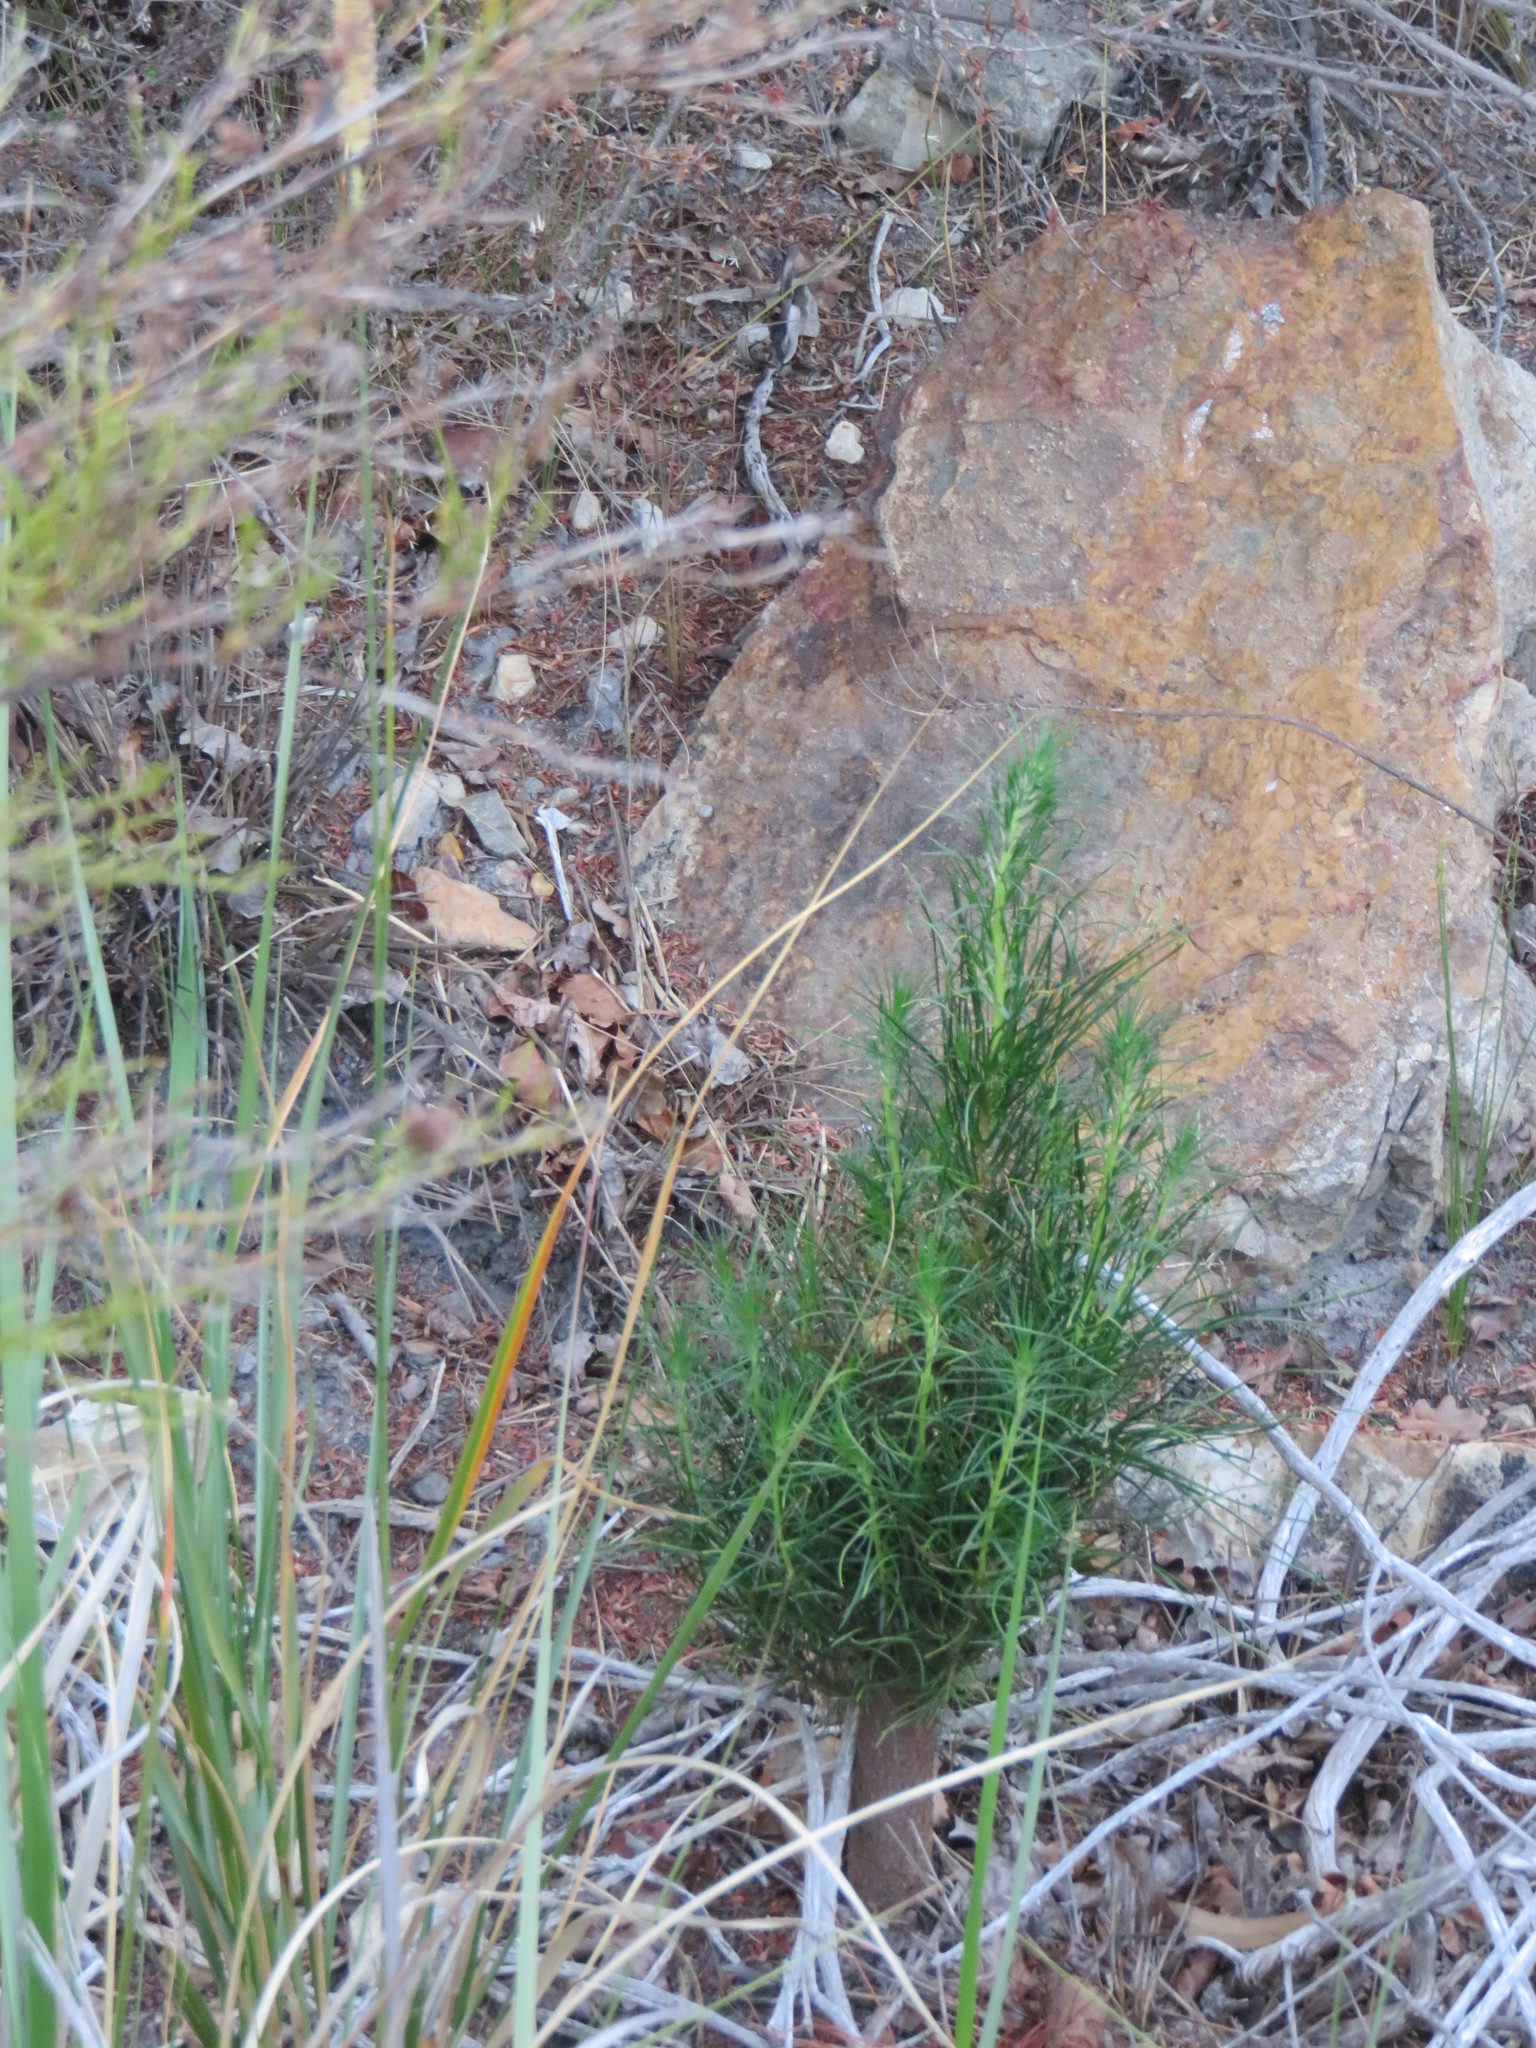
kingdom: Plantae
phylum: Tracheophyta
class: Pinopsida
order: Pinales
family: Pinaceae
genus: Pinus
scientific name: Pinus radiata
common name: Monterey pine
